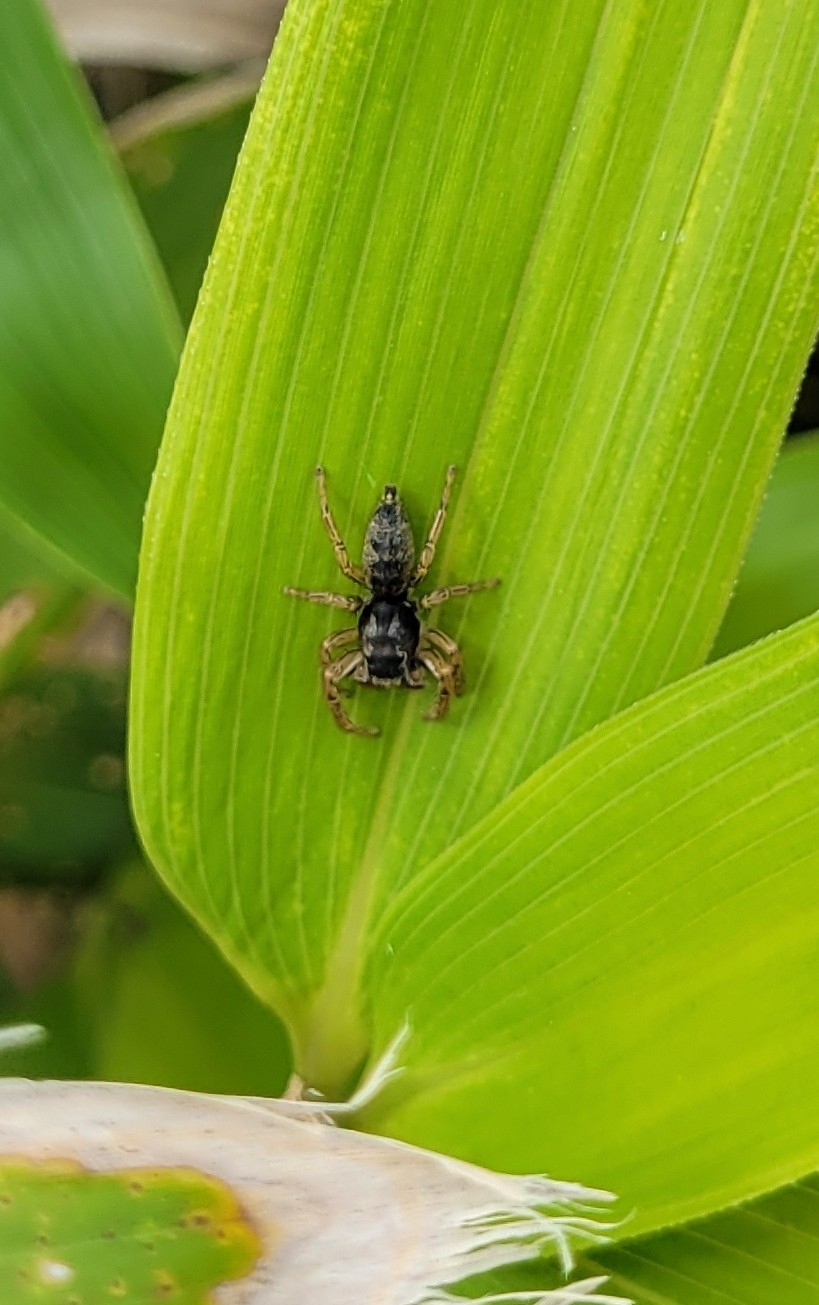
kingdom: Animalia
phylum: Arthropoda
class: Arachnida
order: Araneae
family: Salticidae
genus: Marpissa
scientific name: Marpissa pomatia
